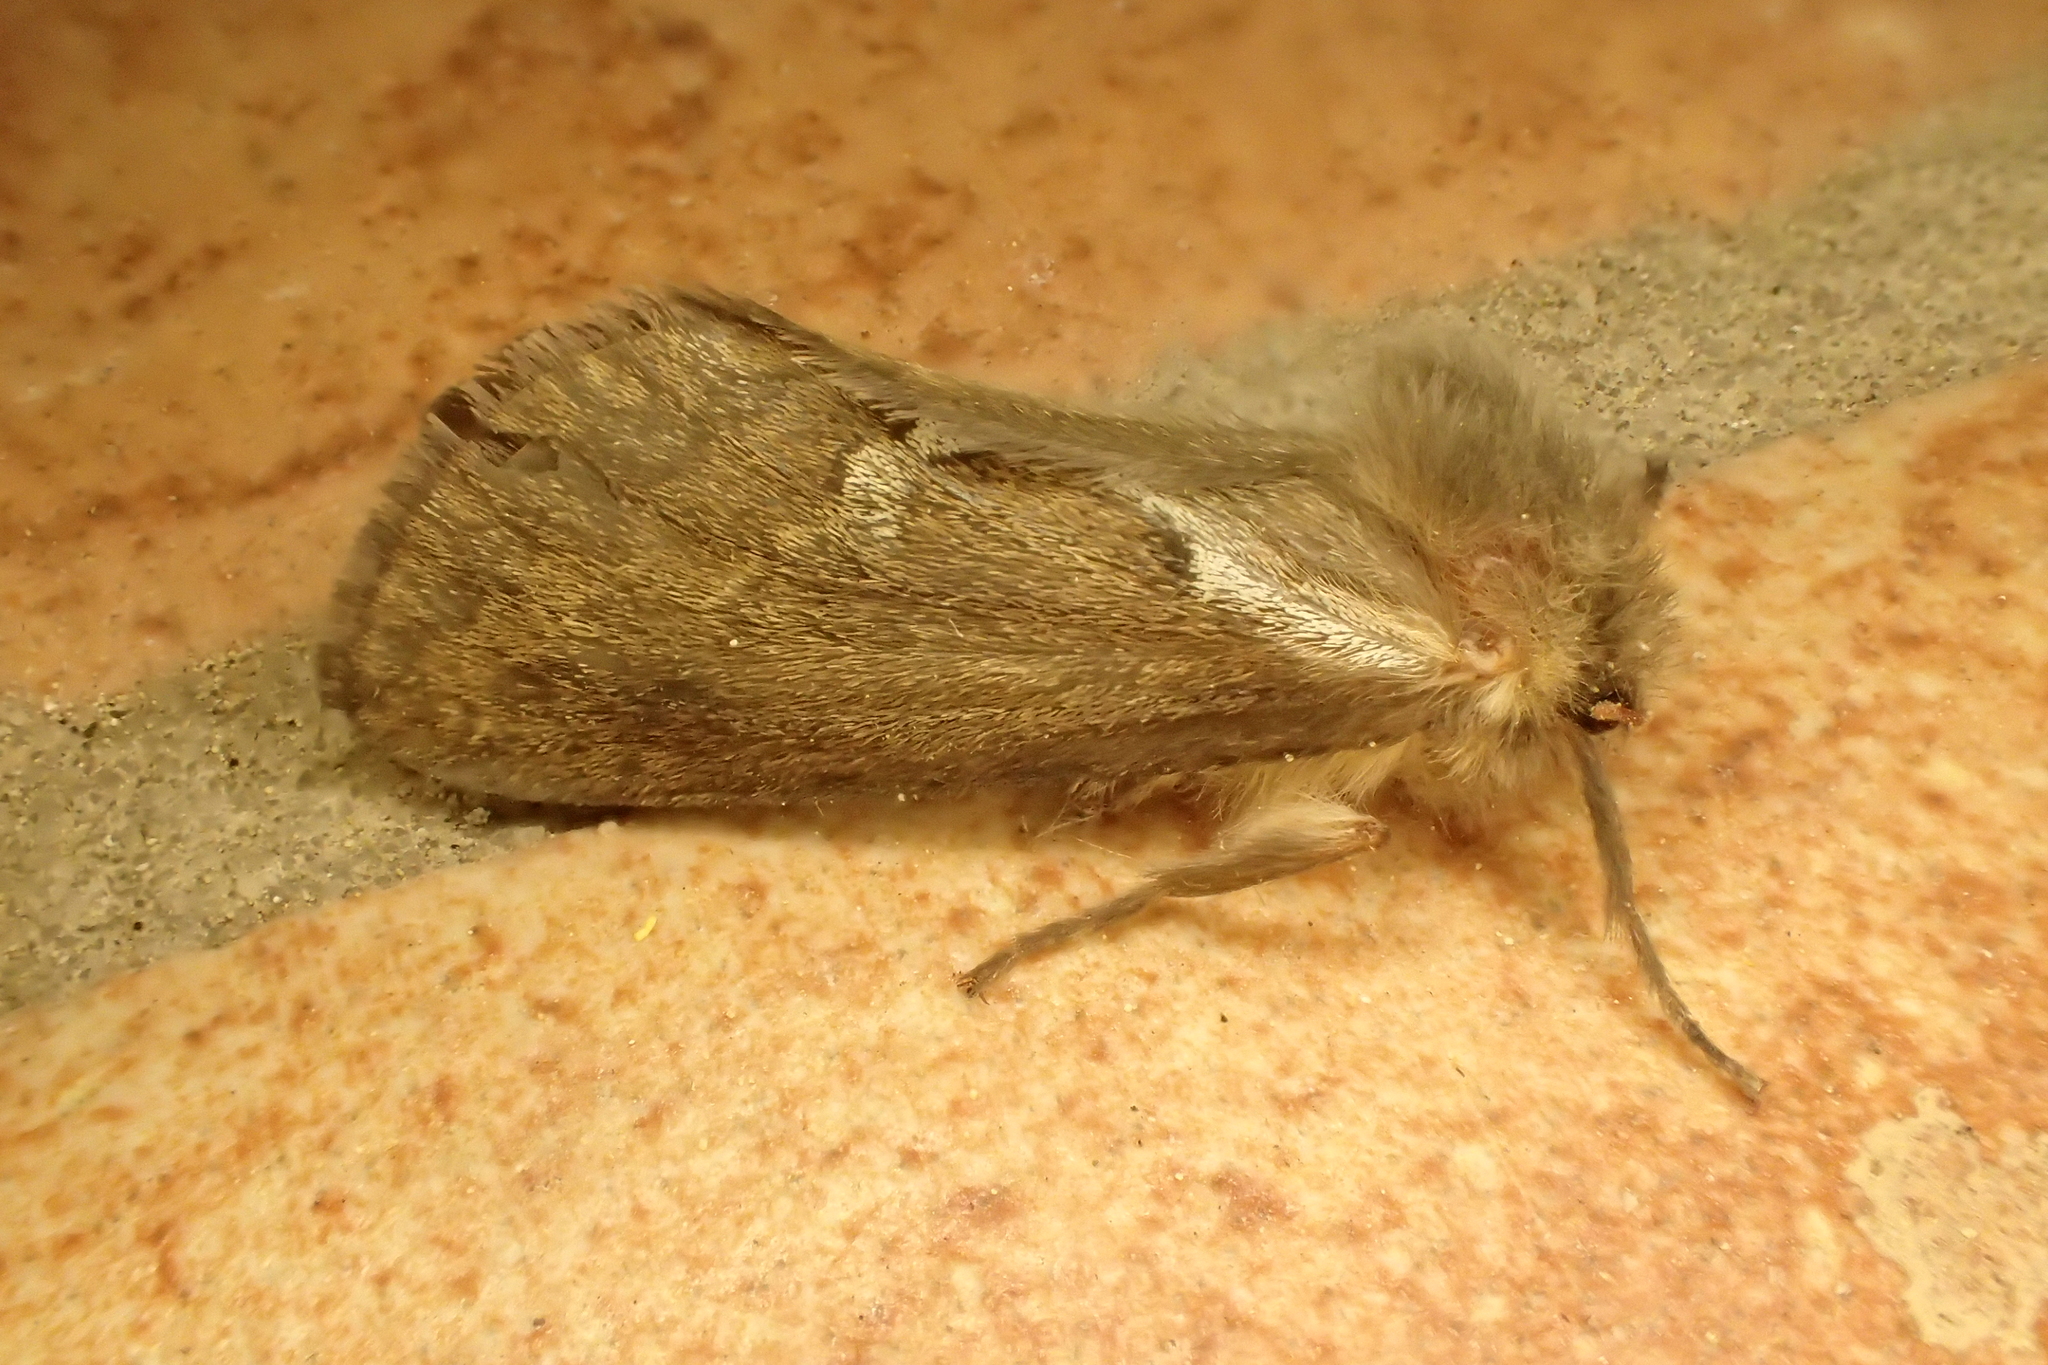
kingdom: Animalia
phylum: Arthropoda
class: Insecta
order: Lepidoptera
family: Hepialidae
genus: Korscheltellus
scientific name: Korscheltellus lupulina
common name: Common swift
